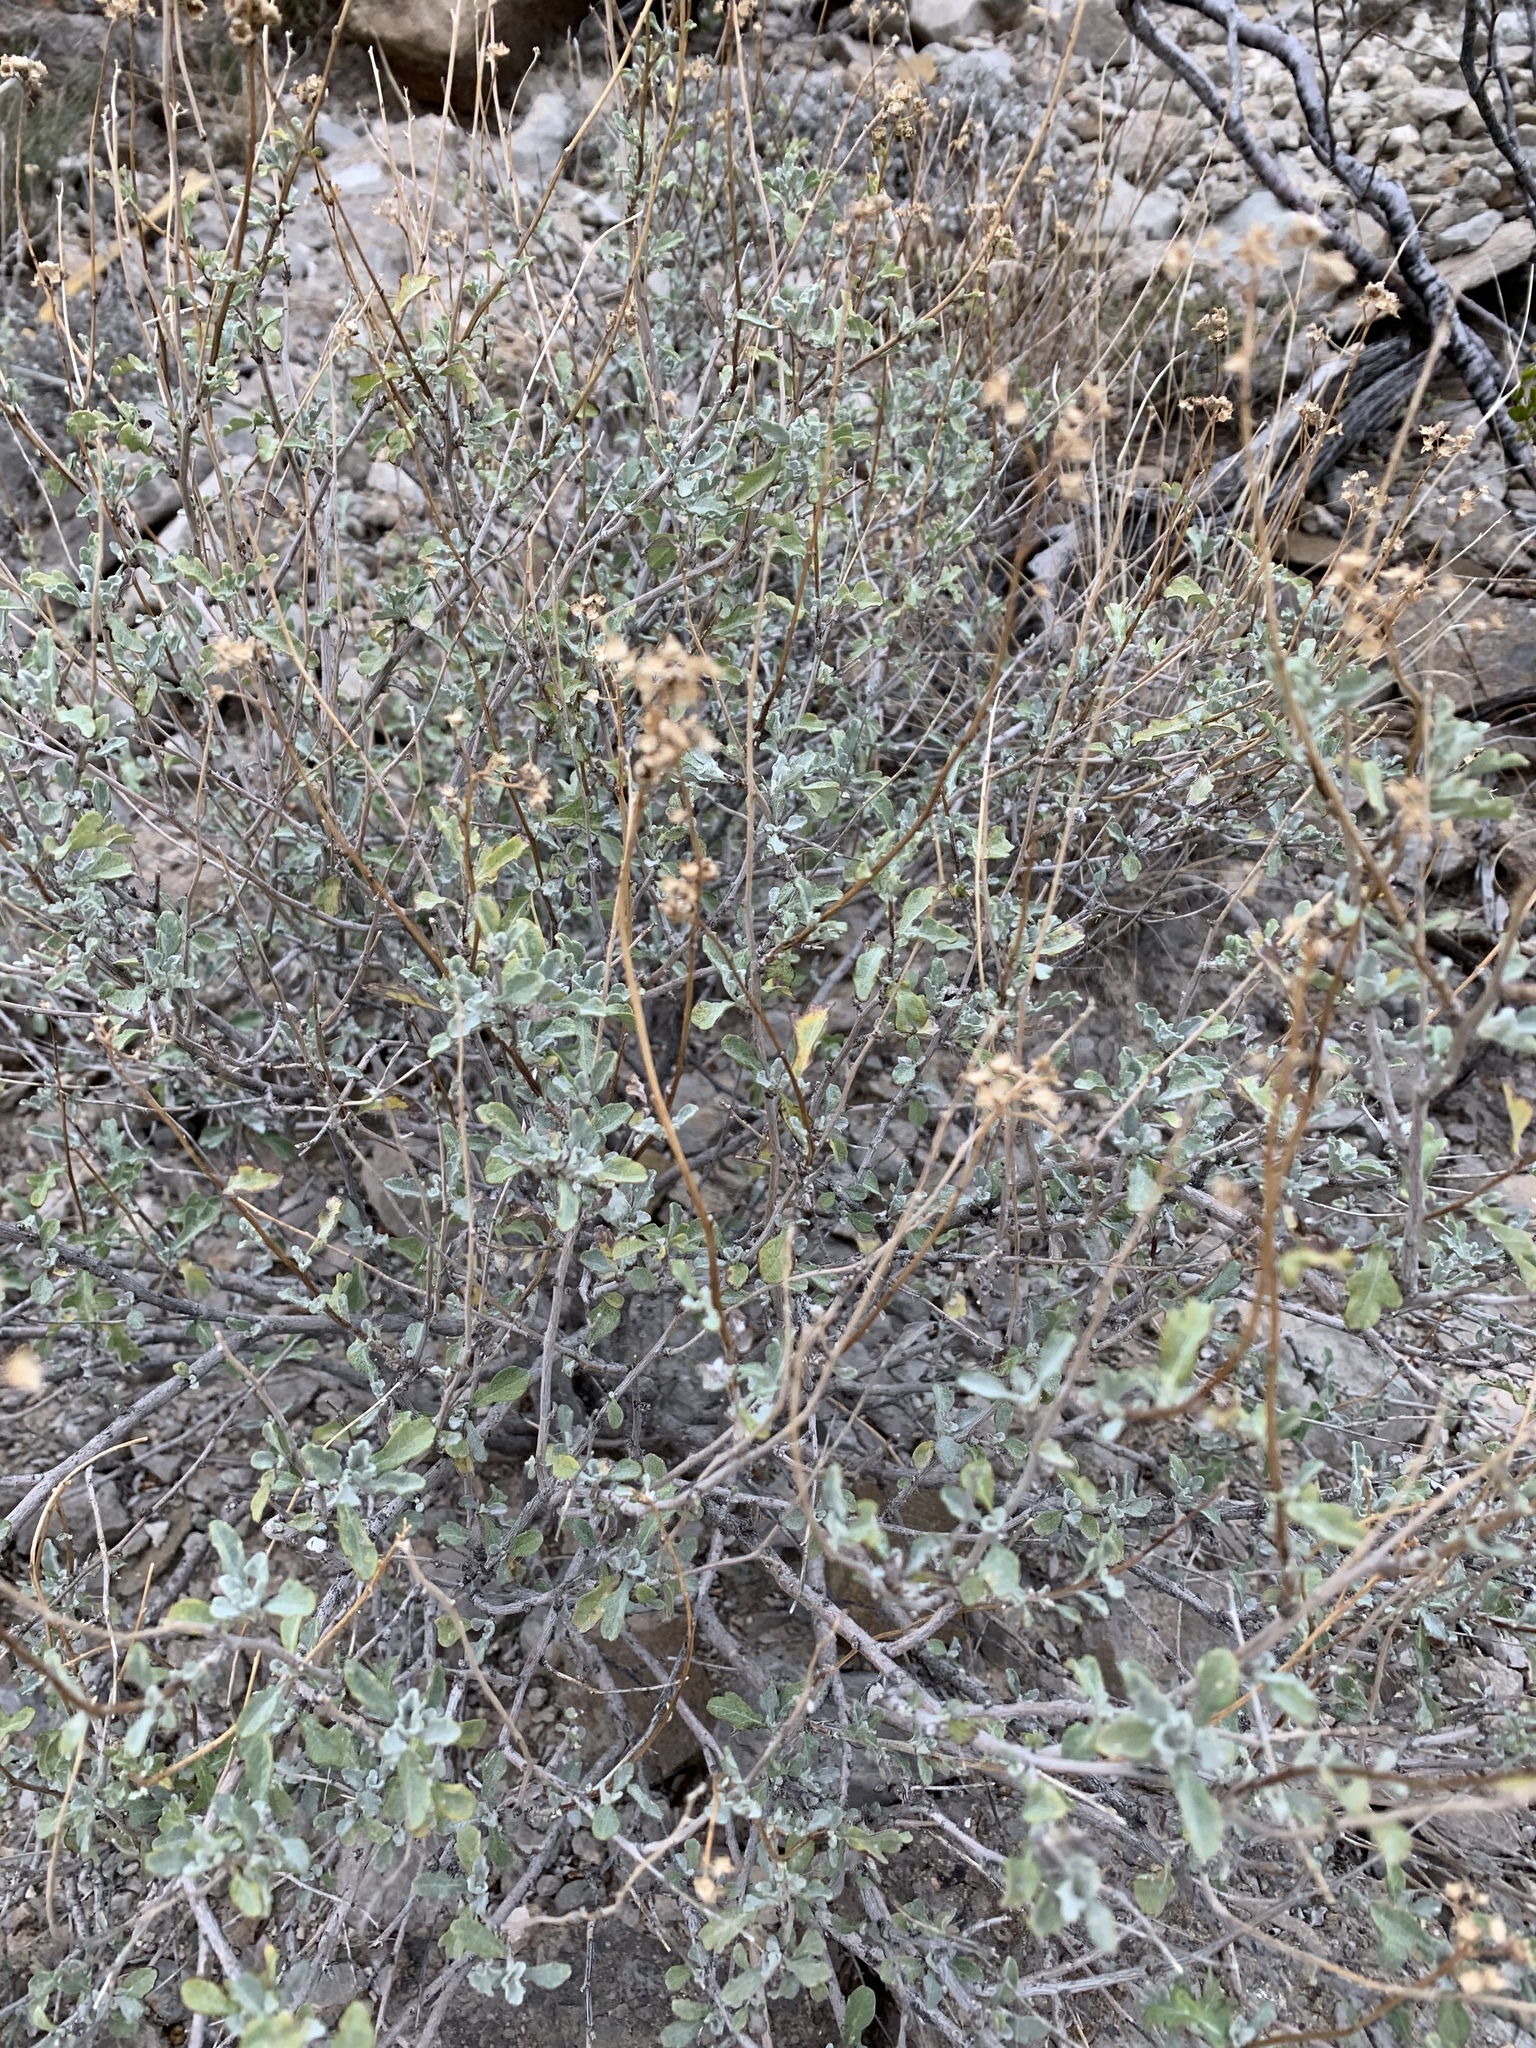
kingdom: Plantae
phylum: Tracheophyta
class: Magnoliopsida
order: Asterales
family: Asteraceae
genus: Parthenium
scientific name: Parthenium incanum
